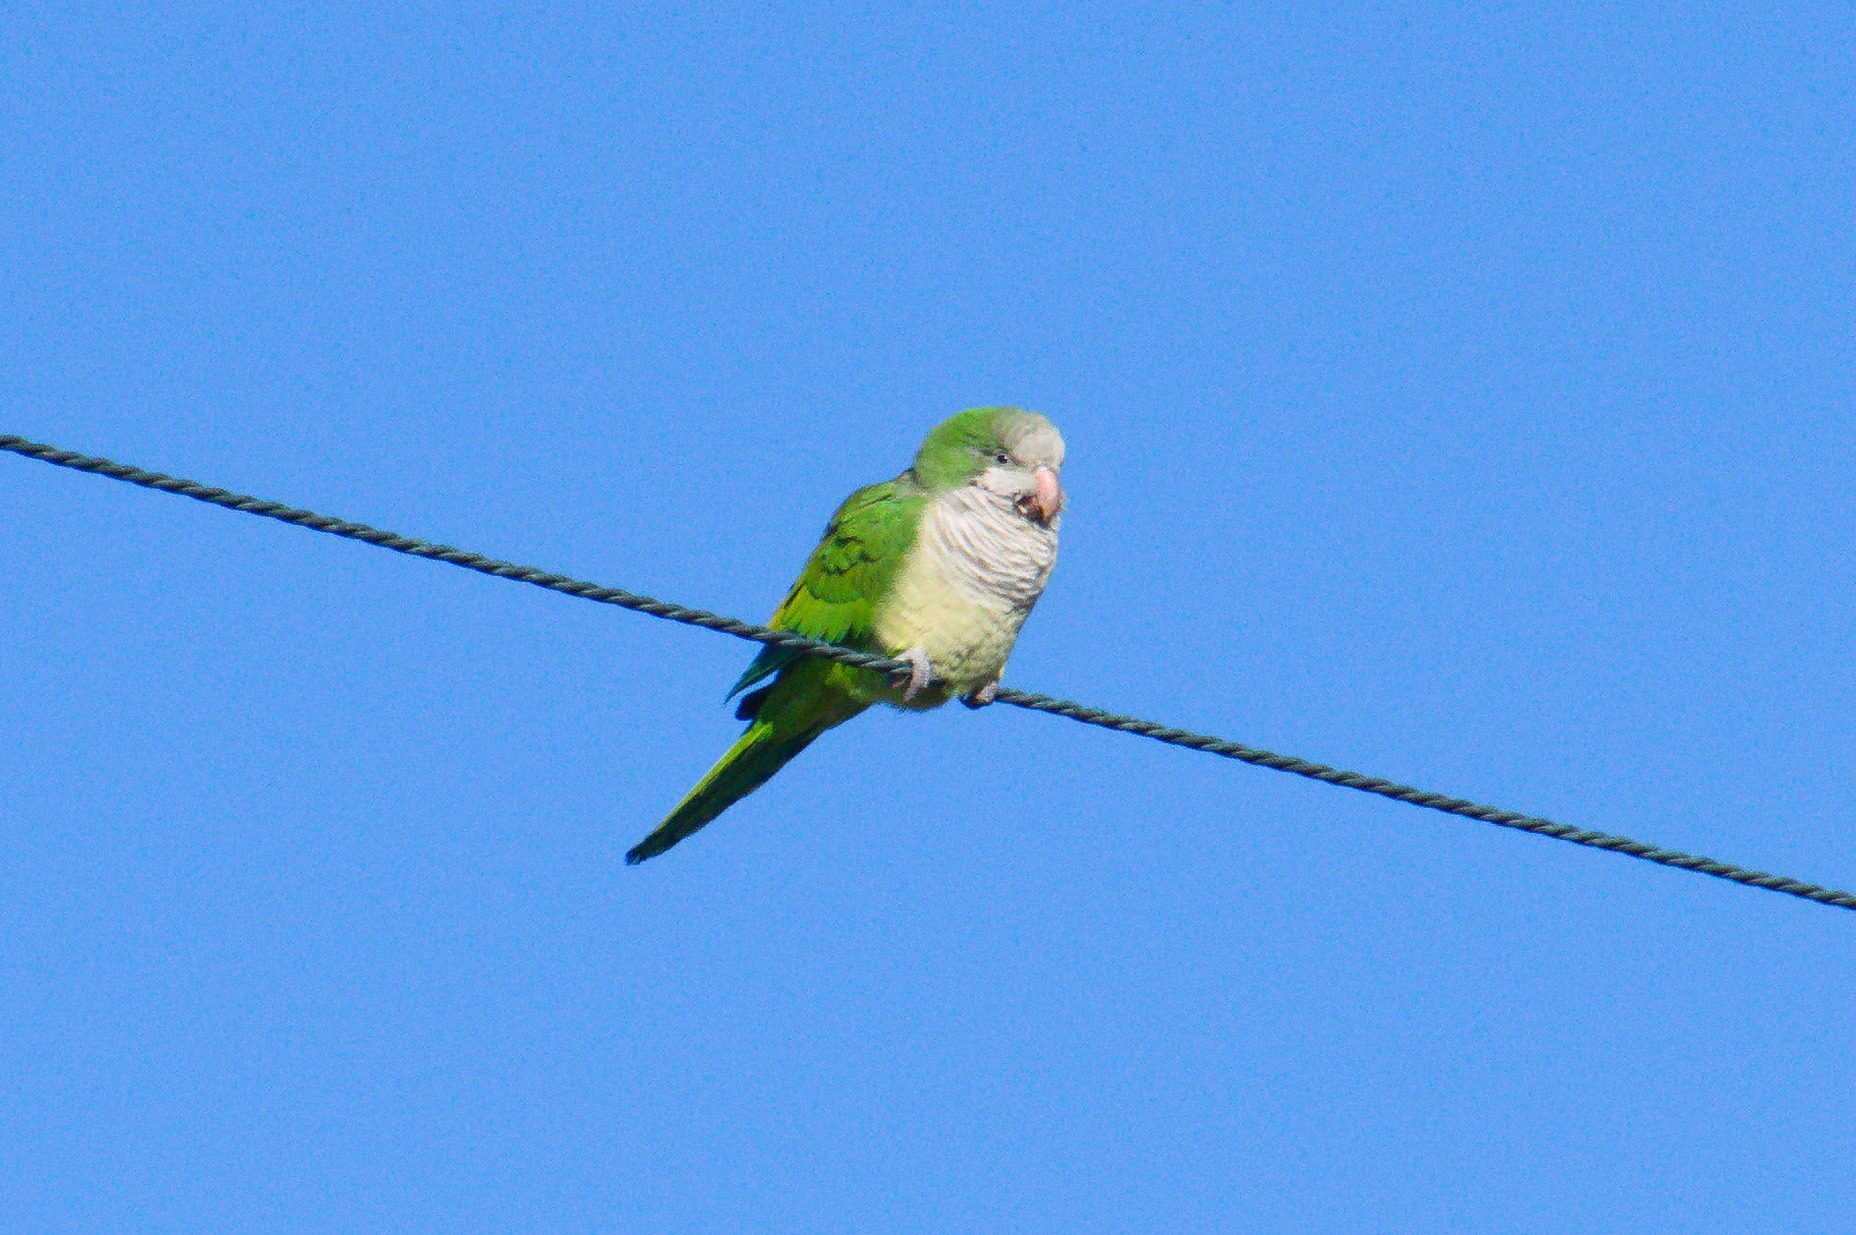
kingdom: Animalia
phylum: Chordata
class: Aves
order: Psittaciformes
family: Psittacidae
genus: Myiopsitta
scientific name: Myiopsitta monachus
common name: Monk parakeet
